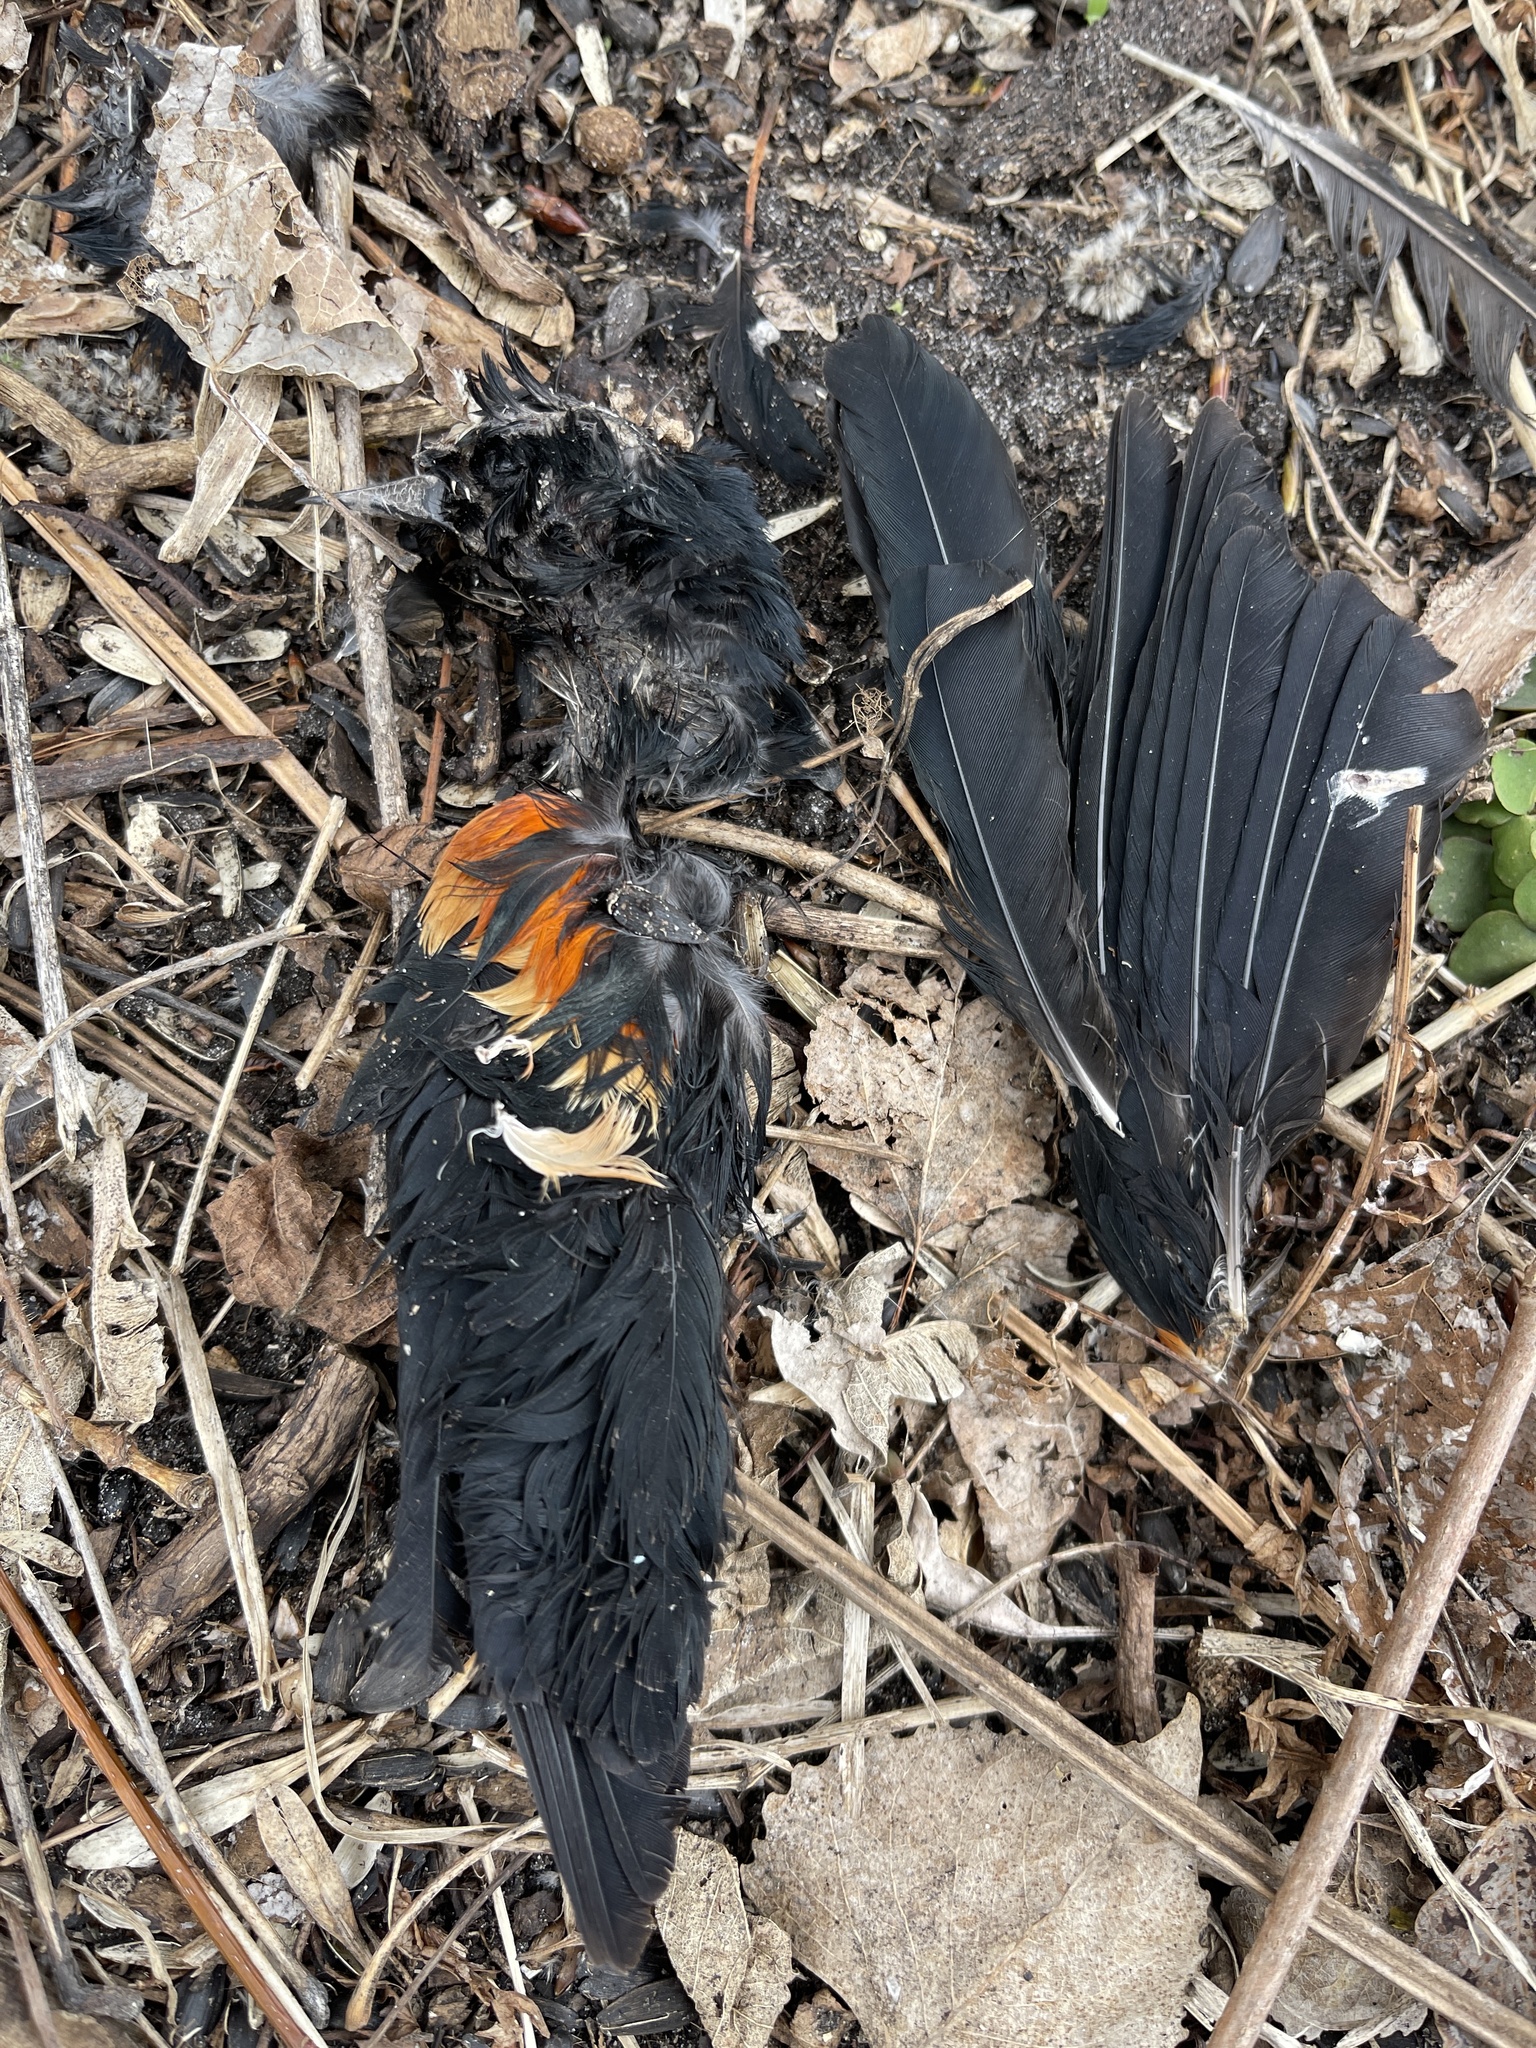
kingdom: Animalia
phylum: Chordata
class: Aves
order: Passeriformes
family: Icteridae
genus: Agelaius
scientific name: Agelaius phoeniceus
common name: Red-winged blackbird
